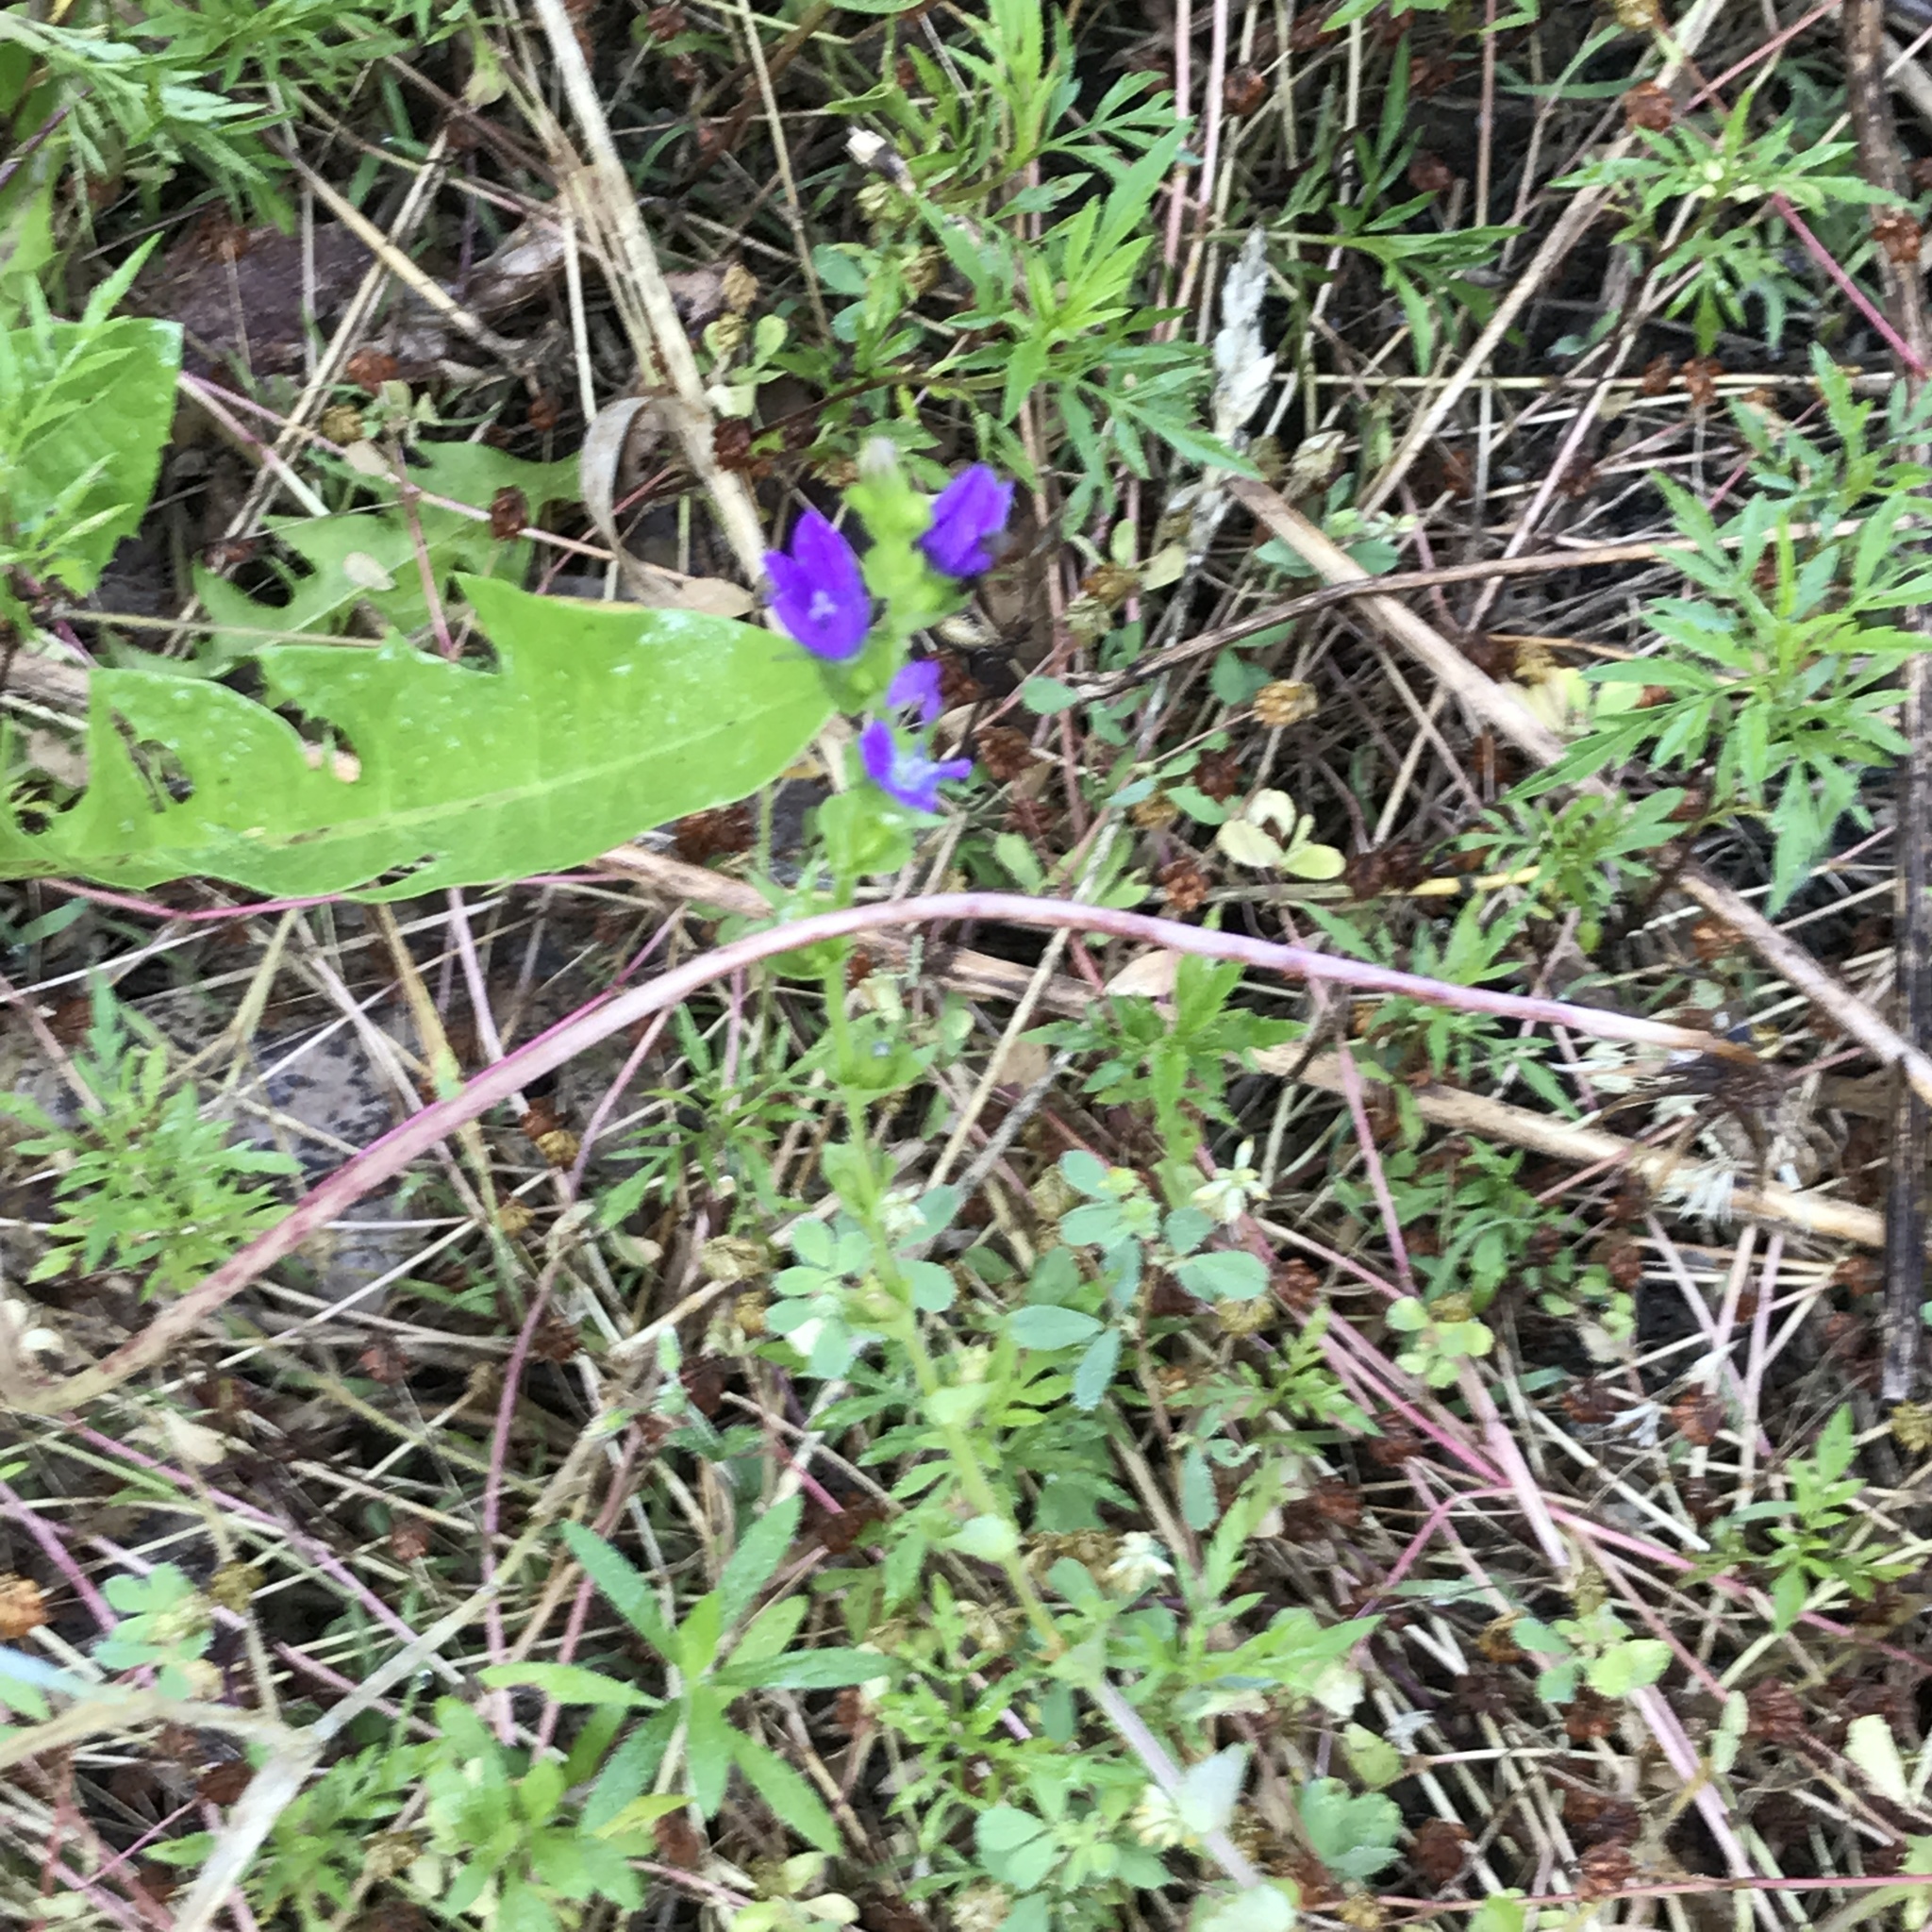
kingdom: Plantae
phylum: Tracheophyta
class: Magnoliopsida
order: Asterales
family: Campanulaceae
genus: Triodanis
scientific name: Triodanis perfoliata
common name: Clasping venus' looking-glass
